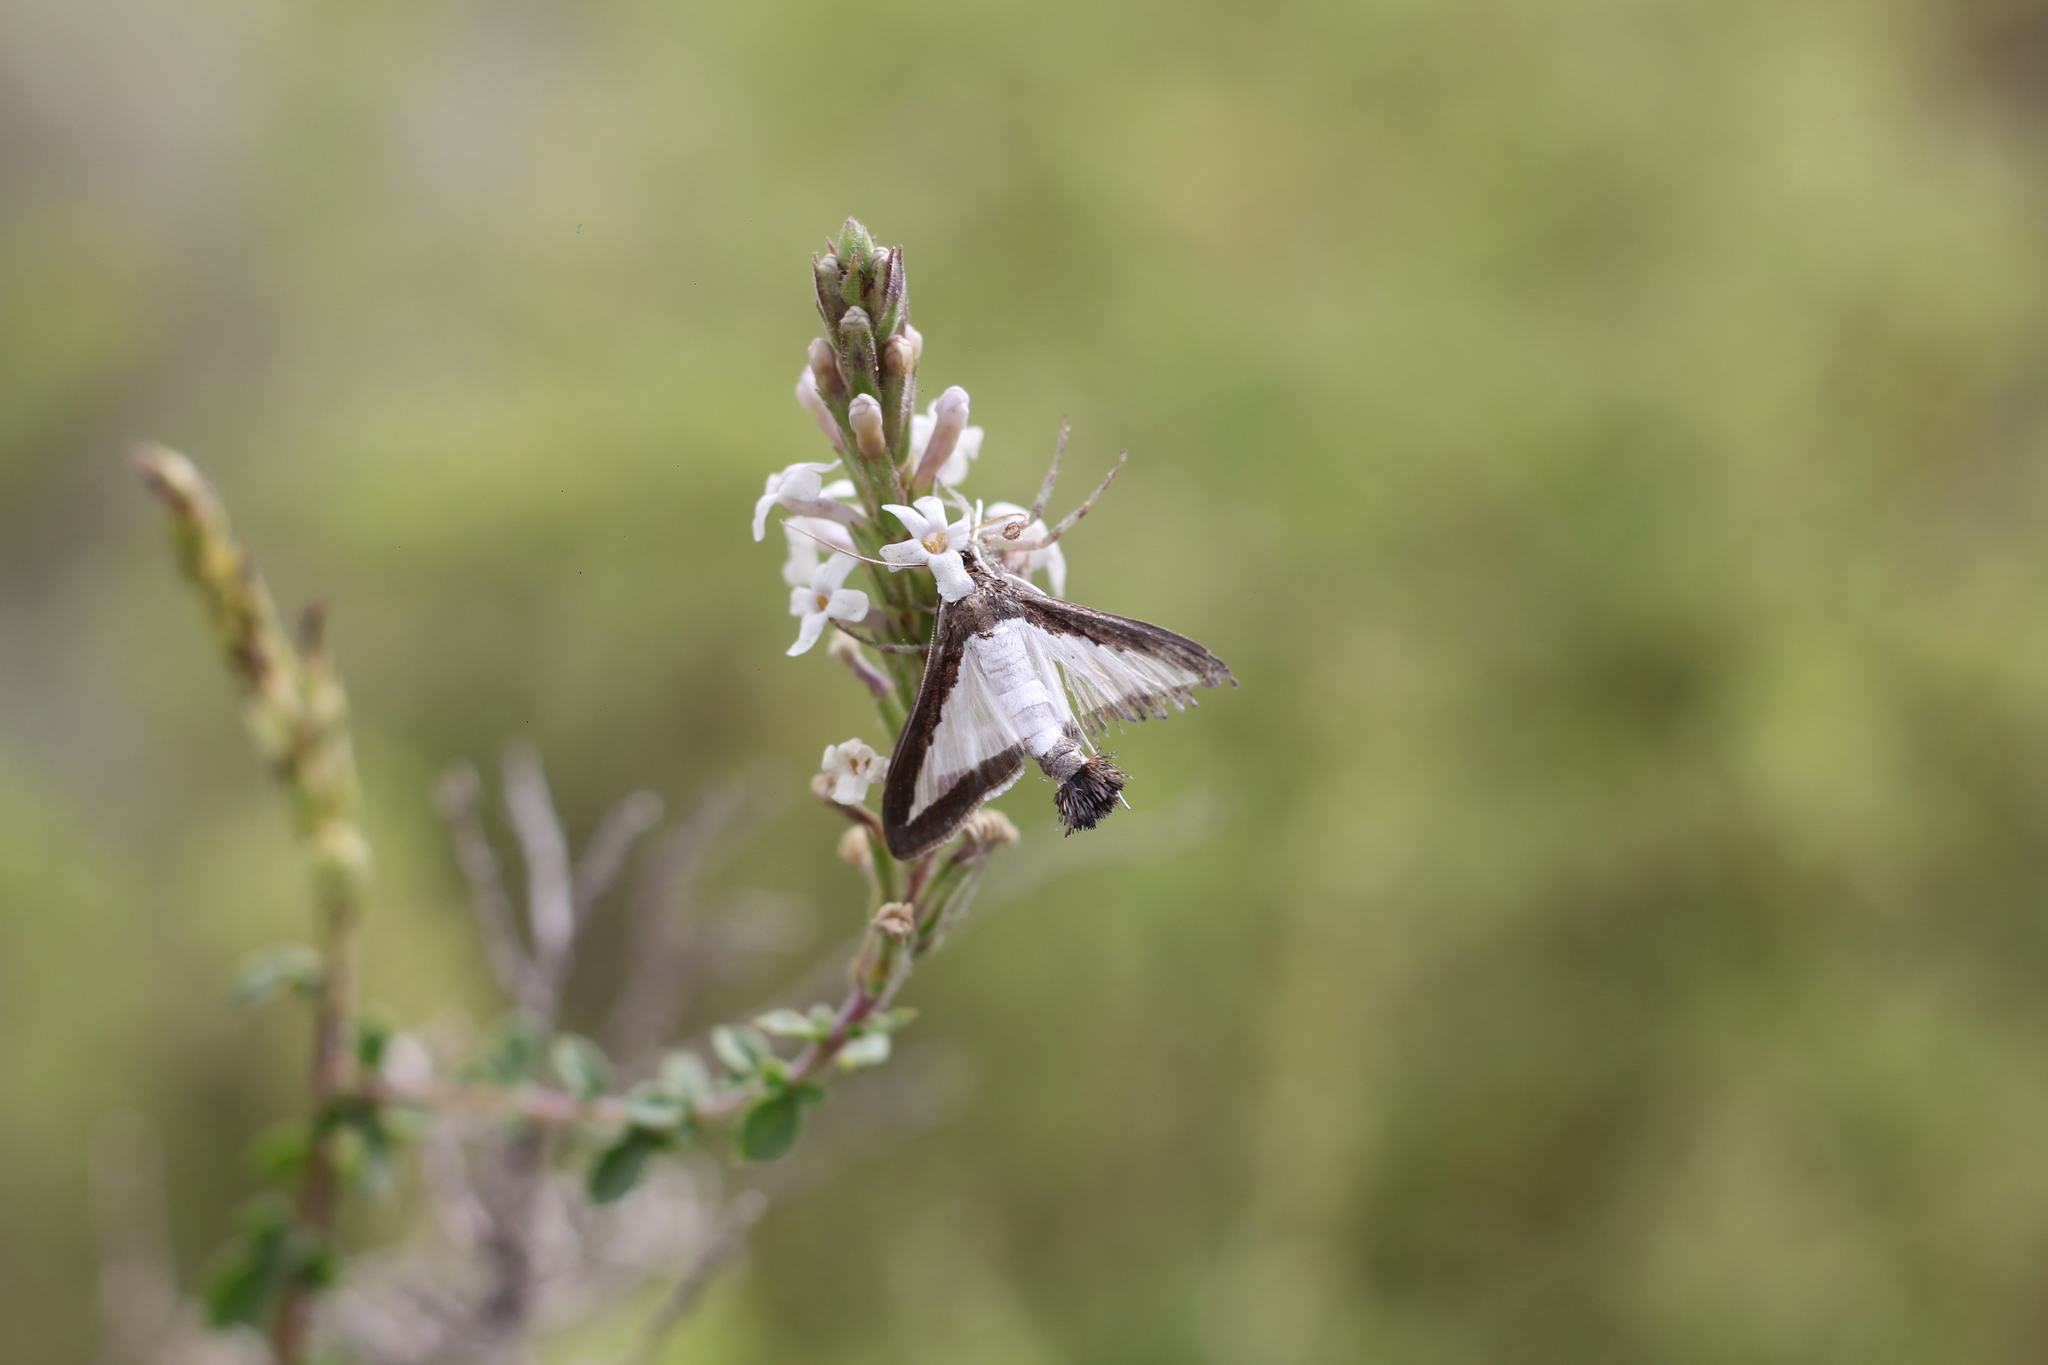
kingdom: Animalia
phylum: Arthropoda
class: Insecta
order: Lepidoptera
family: Crambidae
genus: Diaphania
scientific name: Diaphania hyalinata
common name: Melonworm
